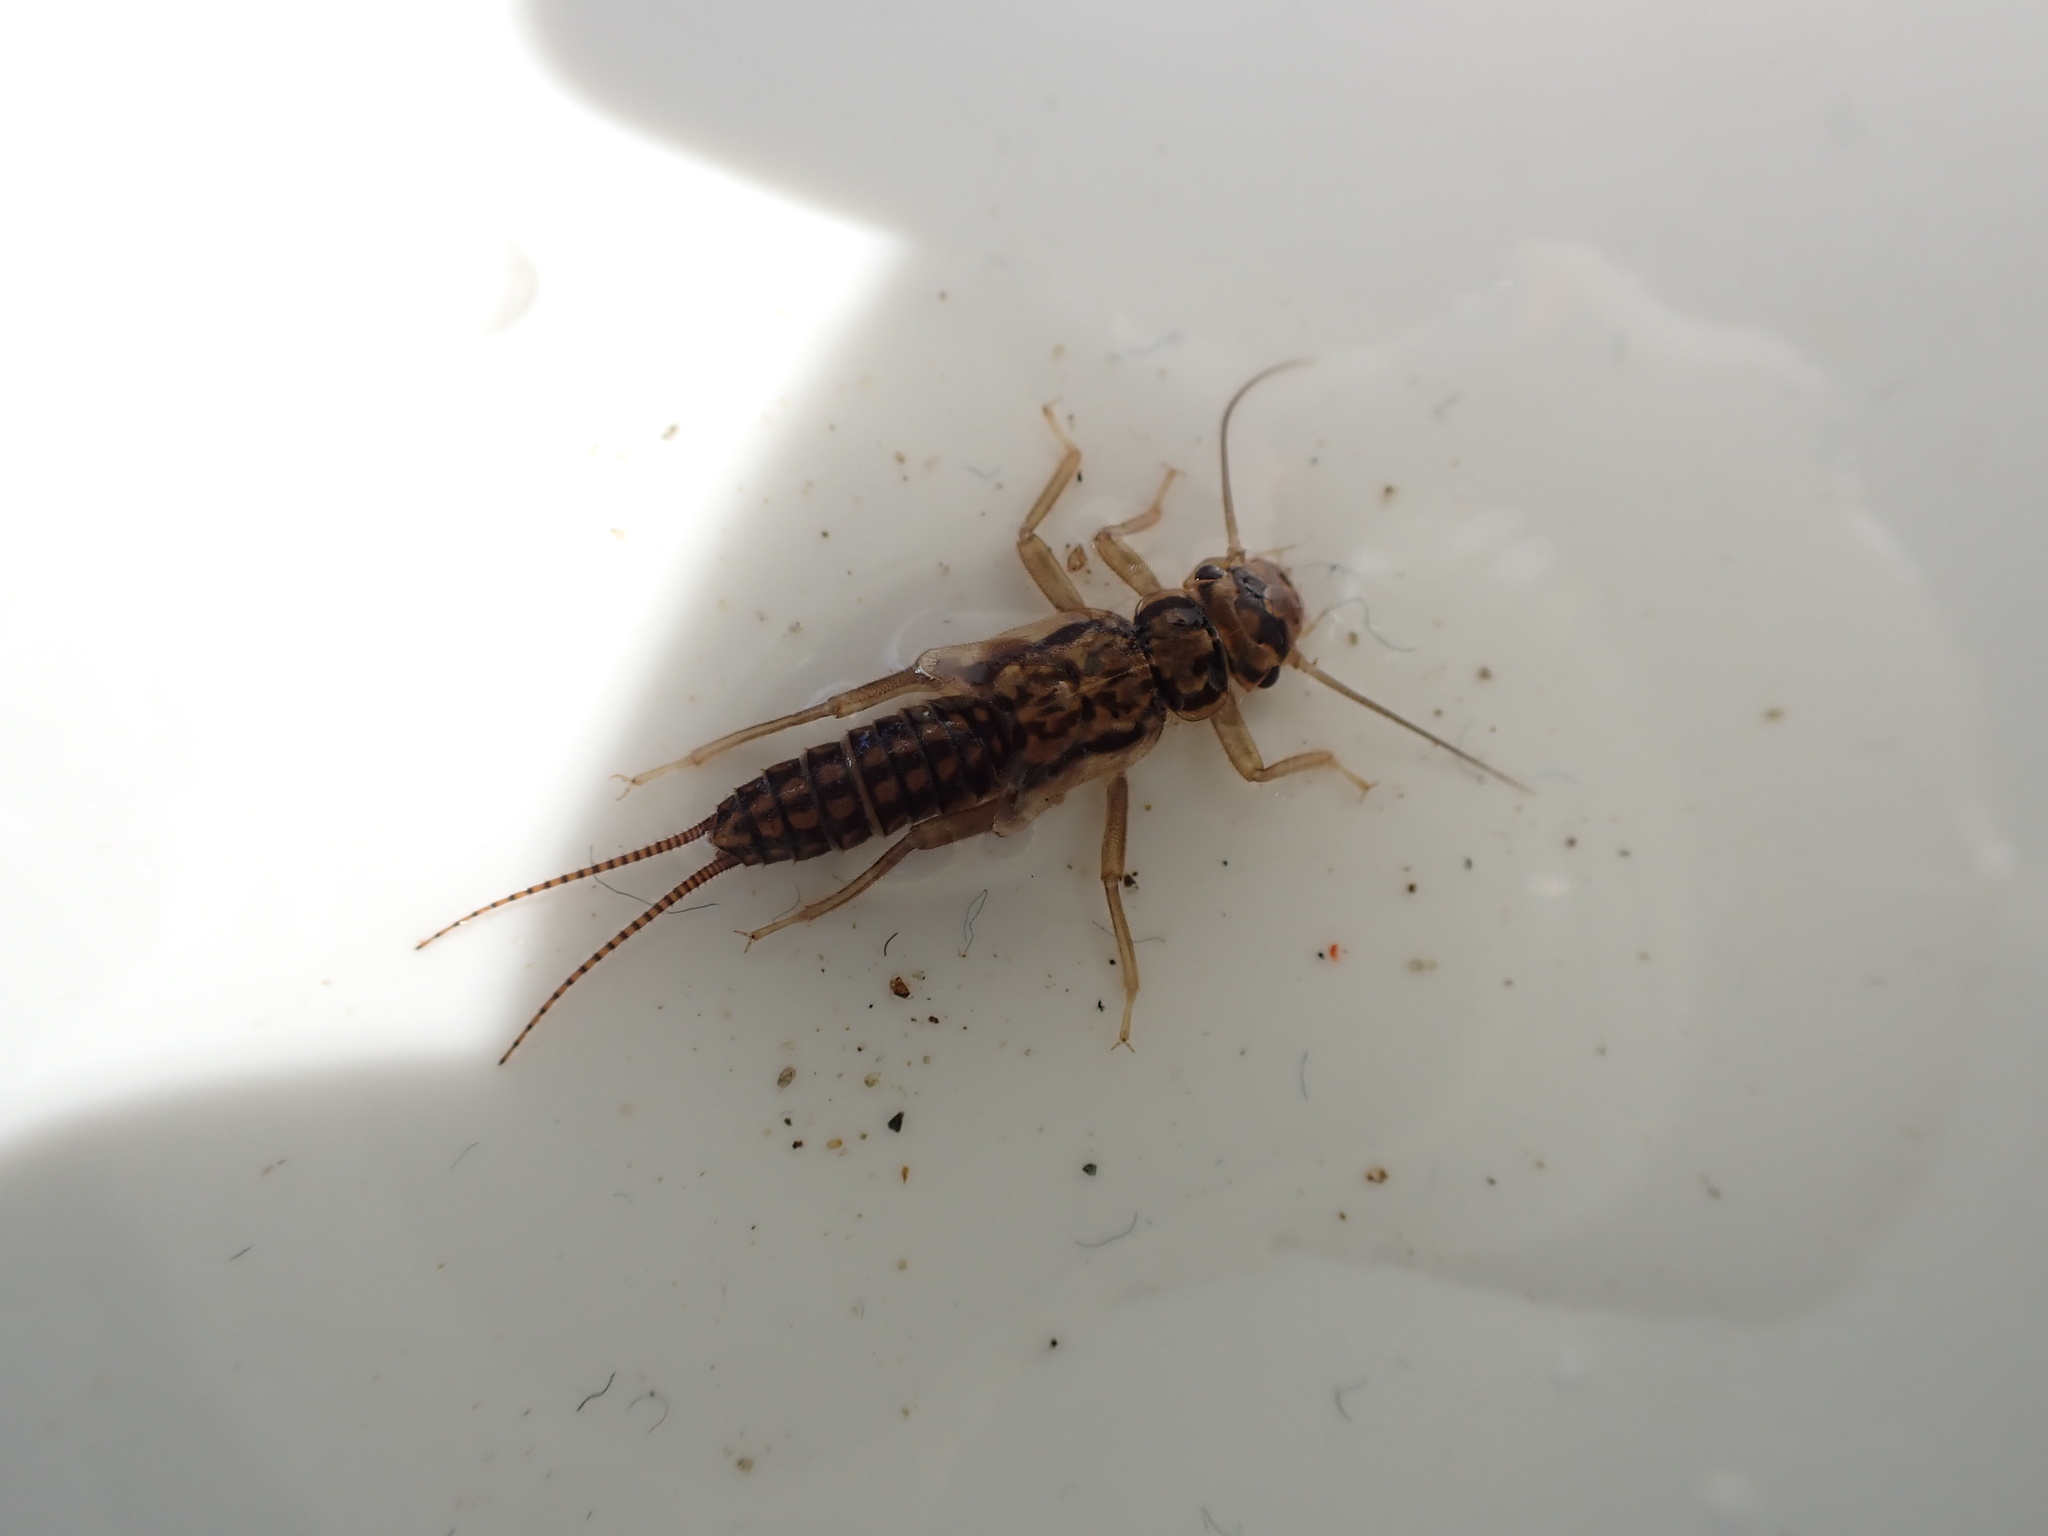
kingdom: Animalia
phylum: Arthropoda
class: Insecta
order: Plecoptera
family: Perlodidae
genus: Isoperla
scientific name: Isoperla difformis
